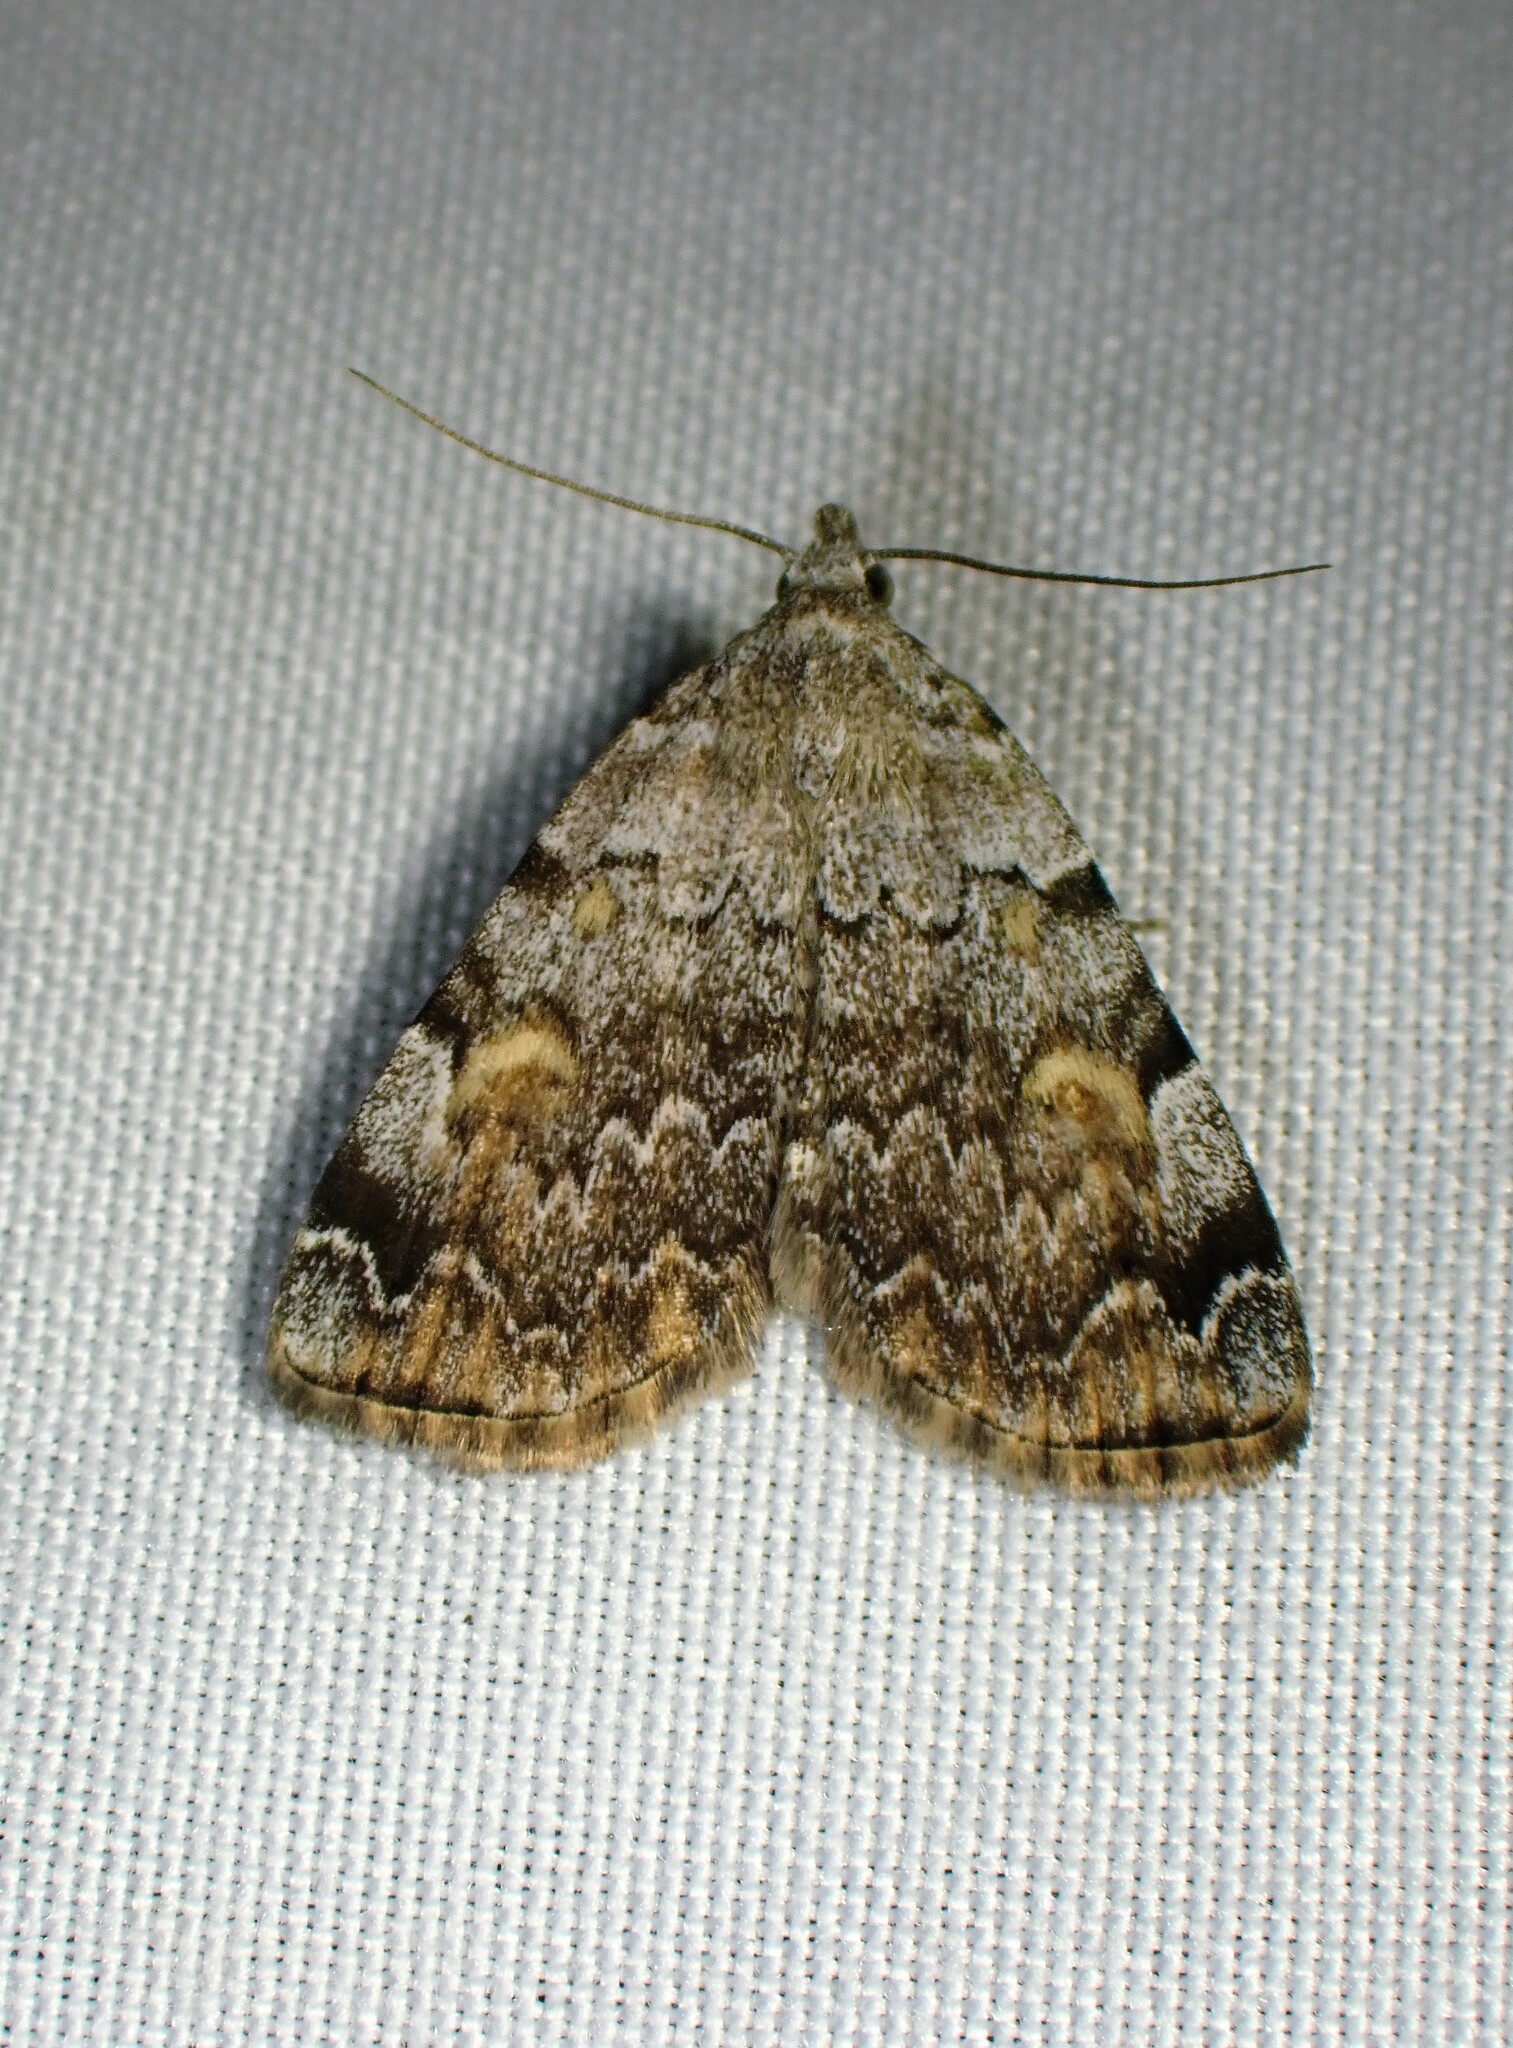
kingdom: Animalia
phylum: Arthropoda
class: Insecta
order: Lepidoptera
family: Erebidae
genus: Idia
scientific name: Idia americalis
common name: American idia moth
